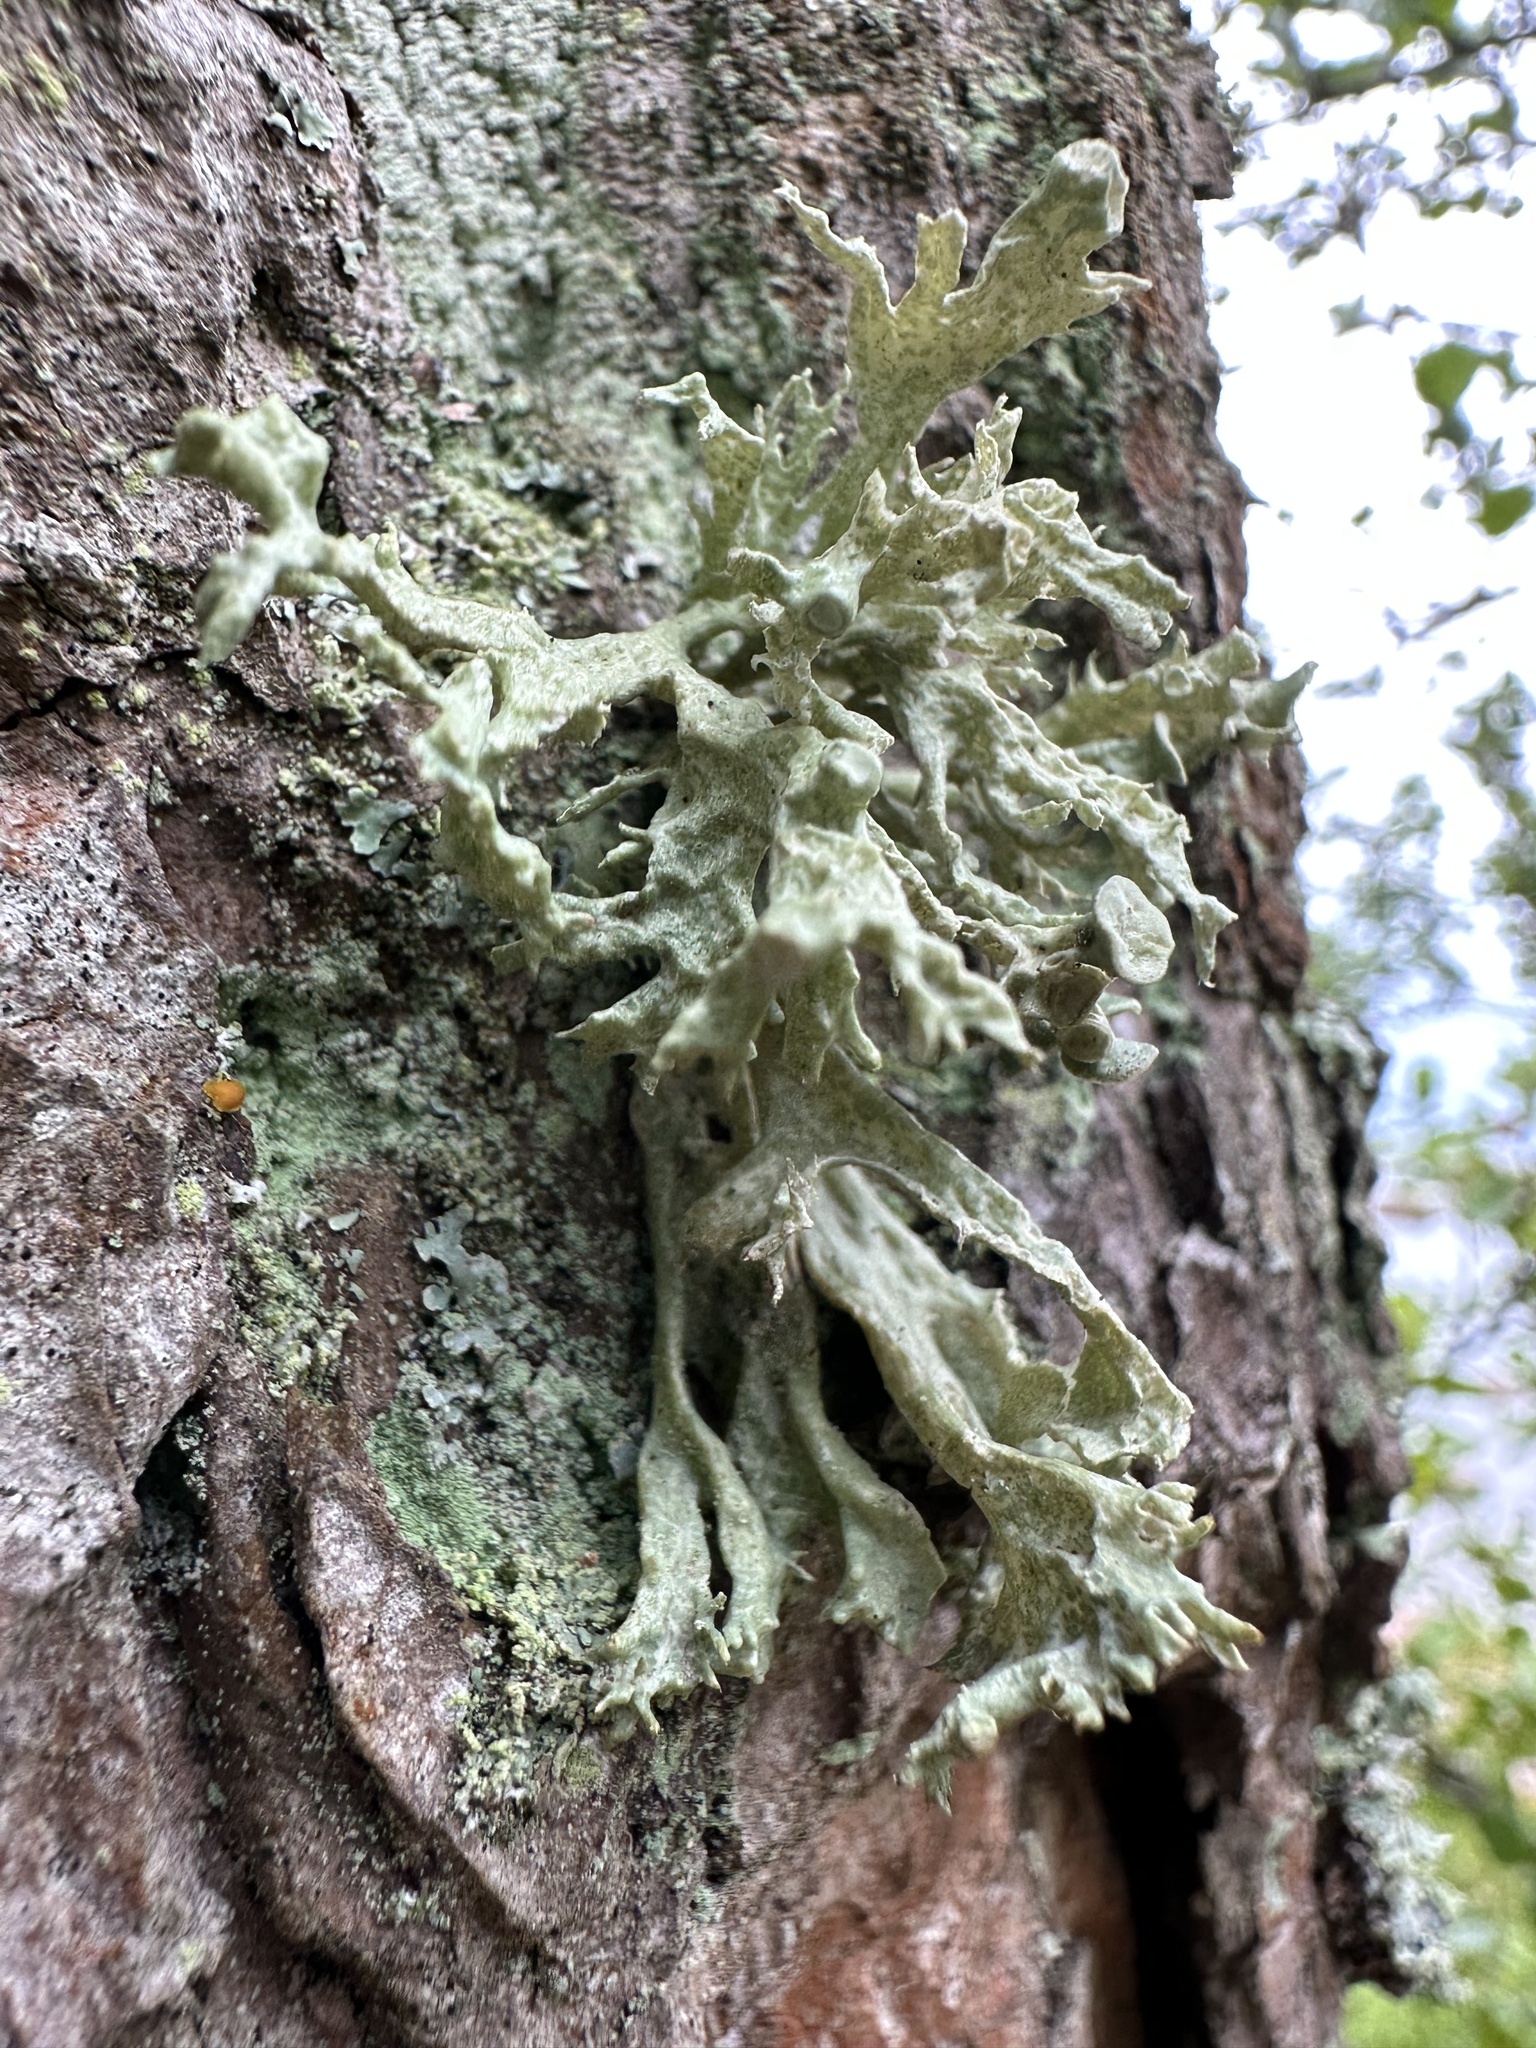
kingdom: Fungi
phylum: Ascomycota
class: Lecanoromycetes
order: Lecanorales
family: Ramalinaceae
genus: Ramalina
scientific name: Ramalina fastigiata
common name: Dotted ribbon lichen
